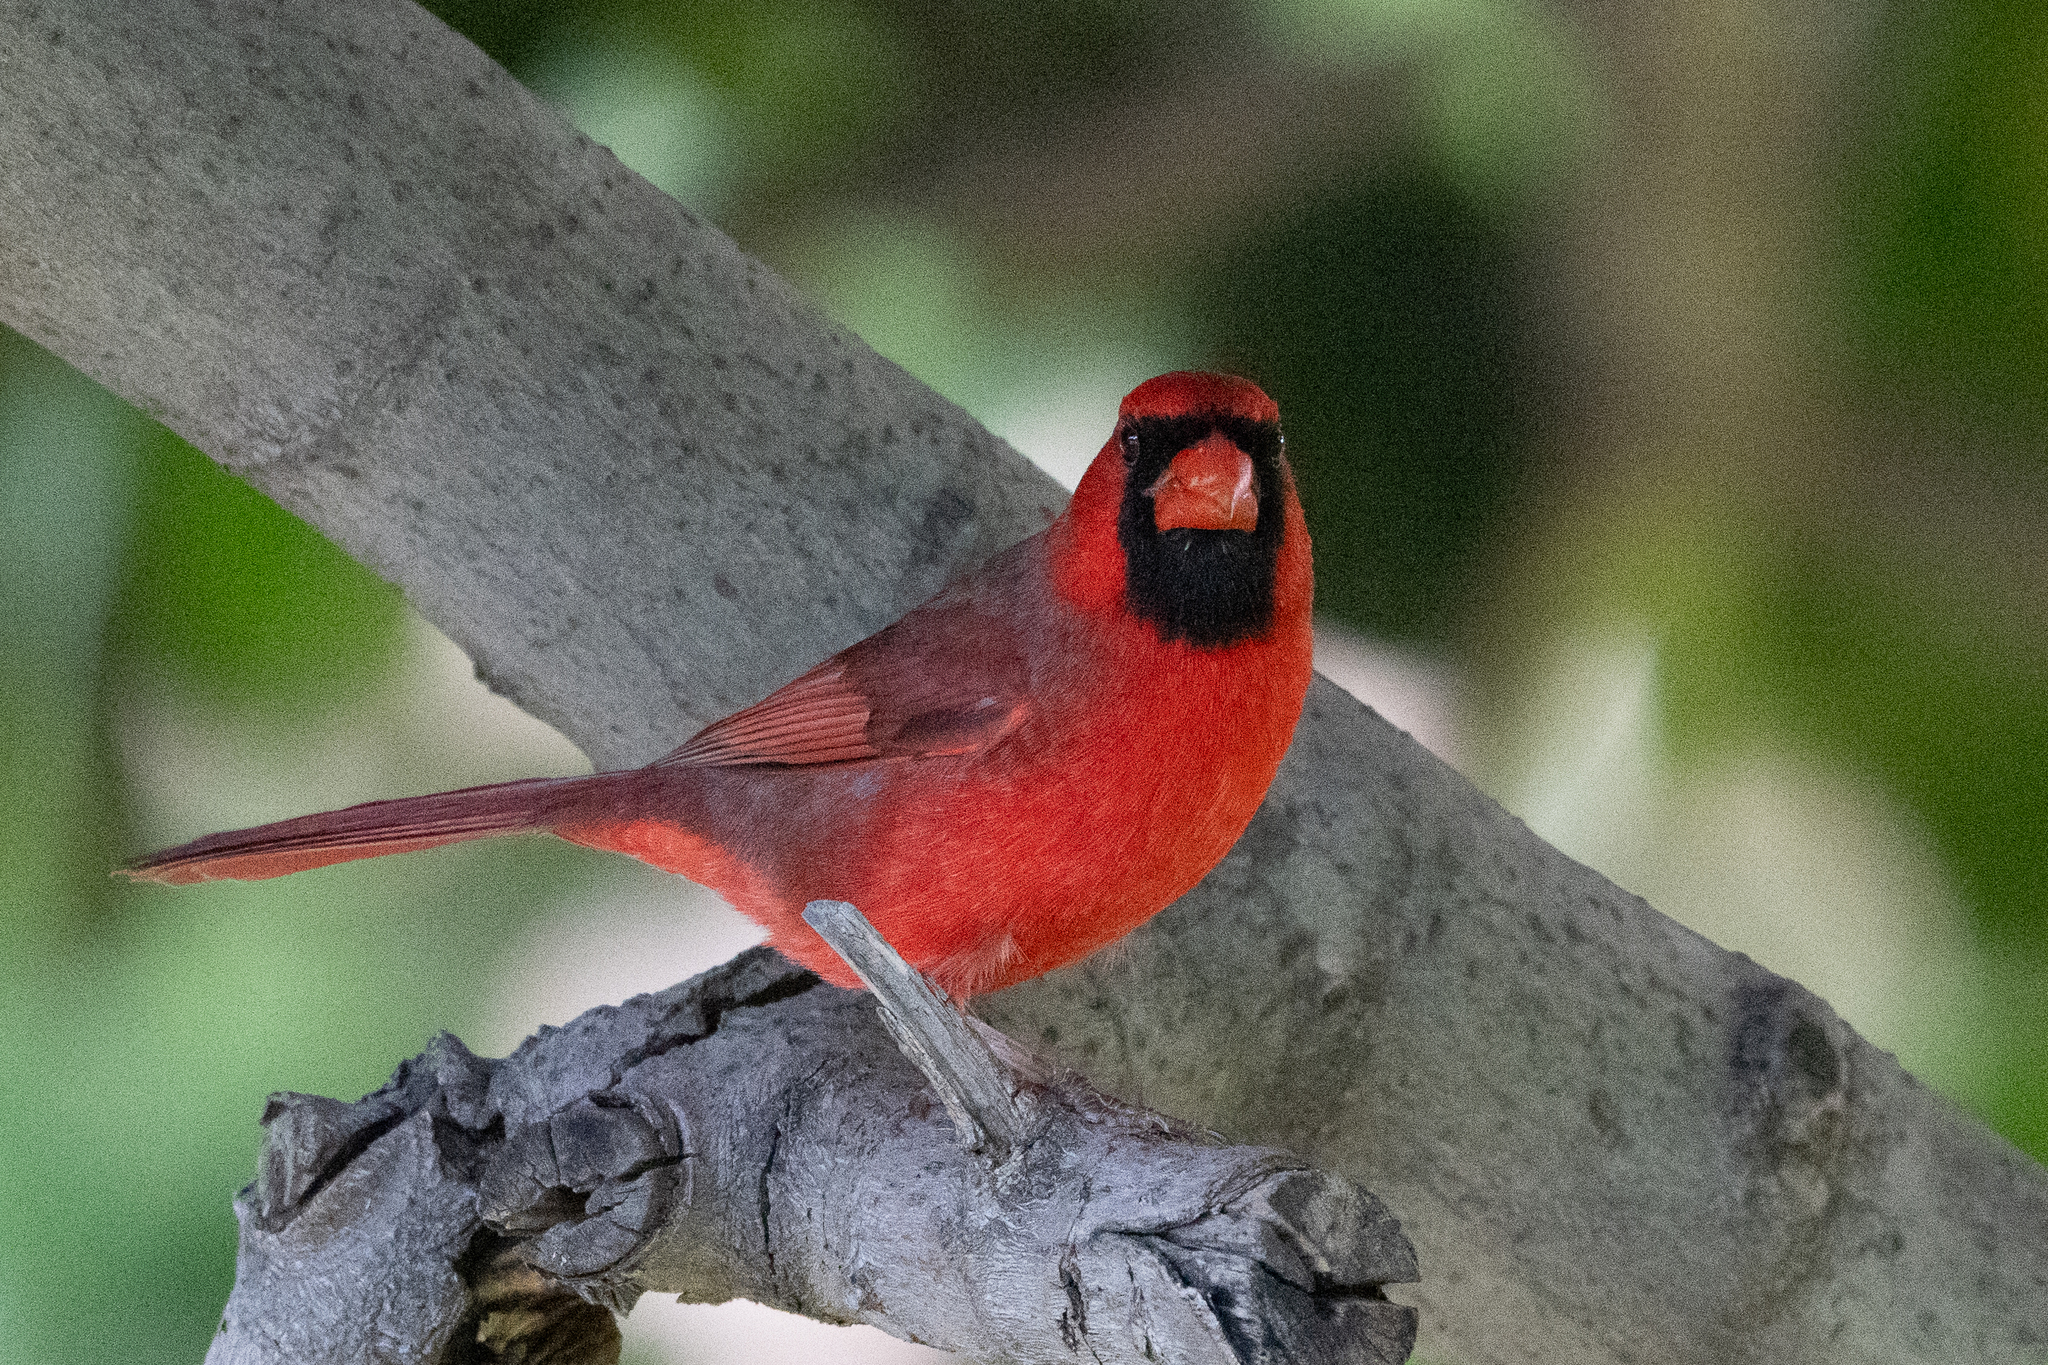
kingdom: Animalia
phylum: Chordata
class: Aves
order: Passeriformes
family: Cardinalidae
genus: Cardinalis
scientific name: Cardinalis cardinalis
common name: Northern cardinal
